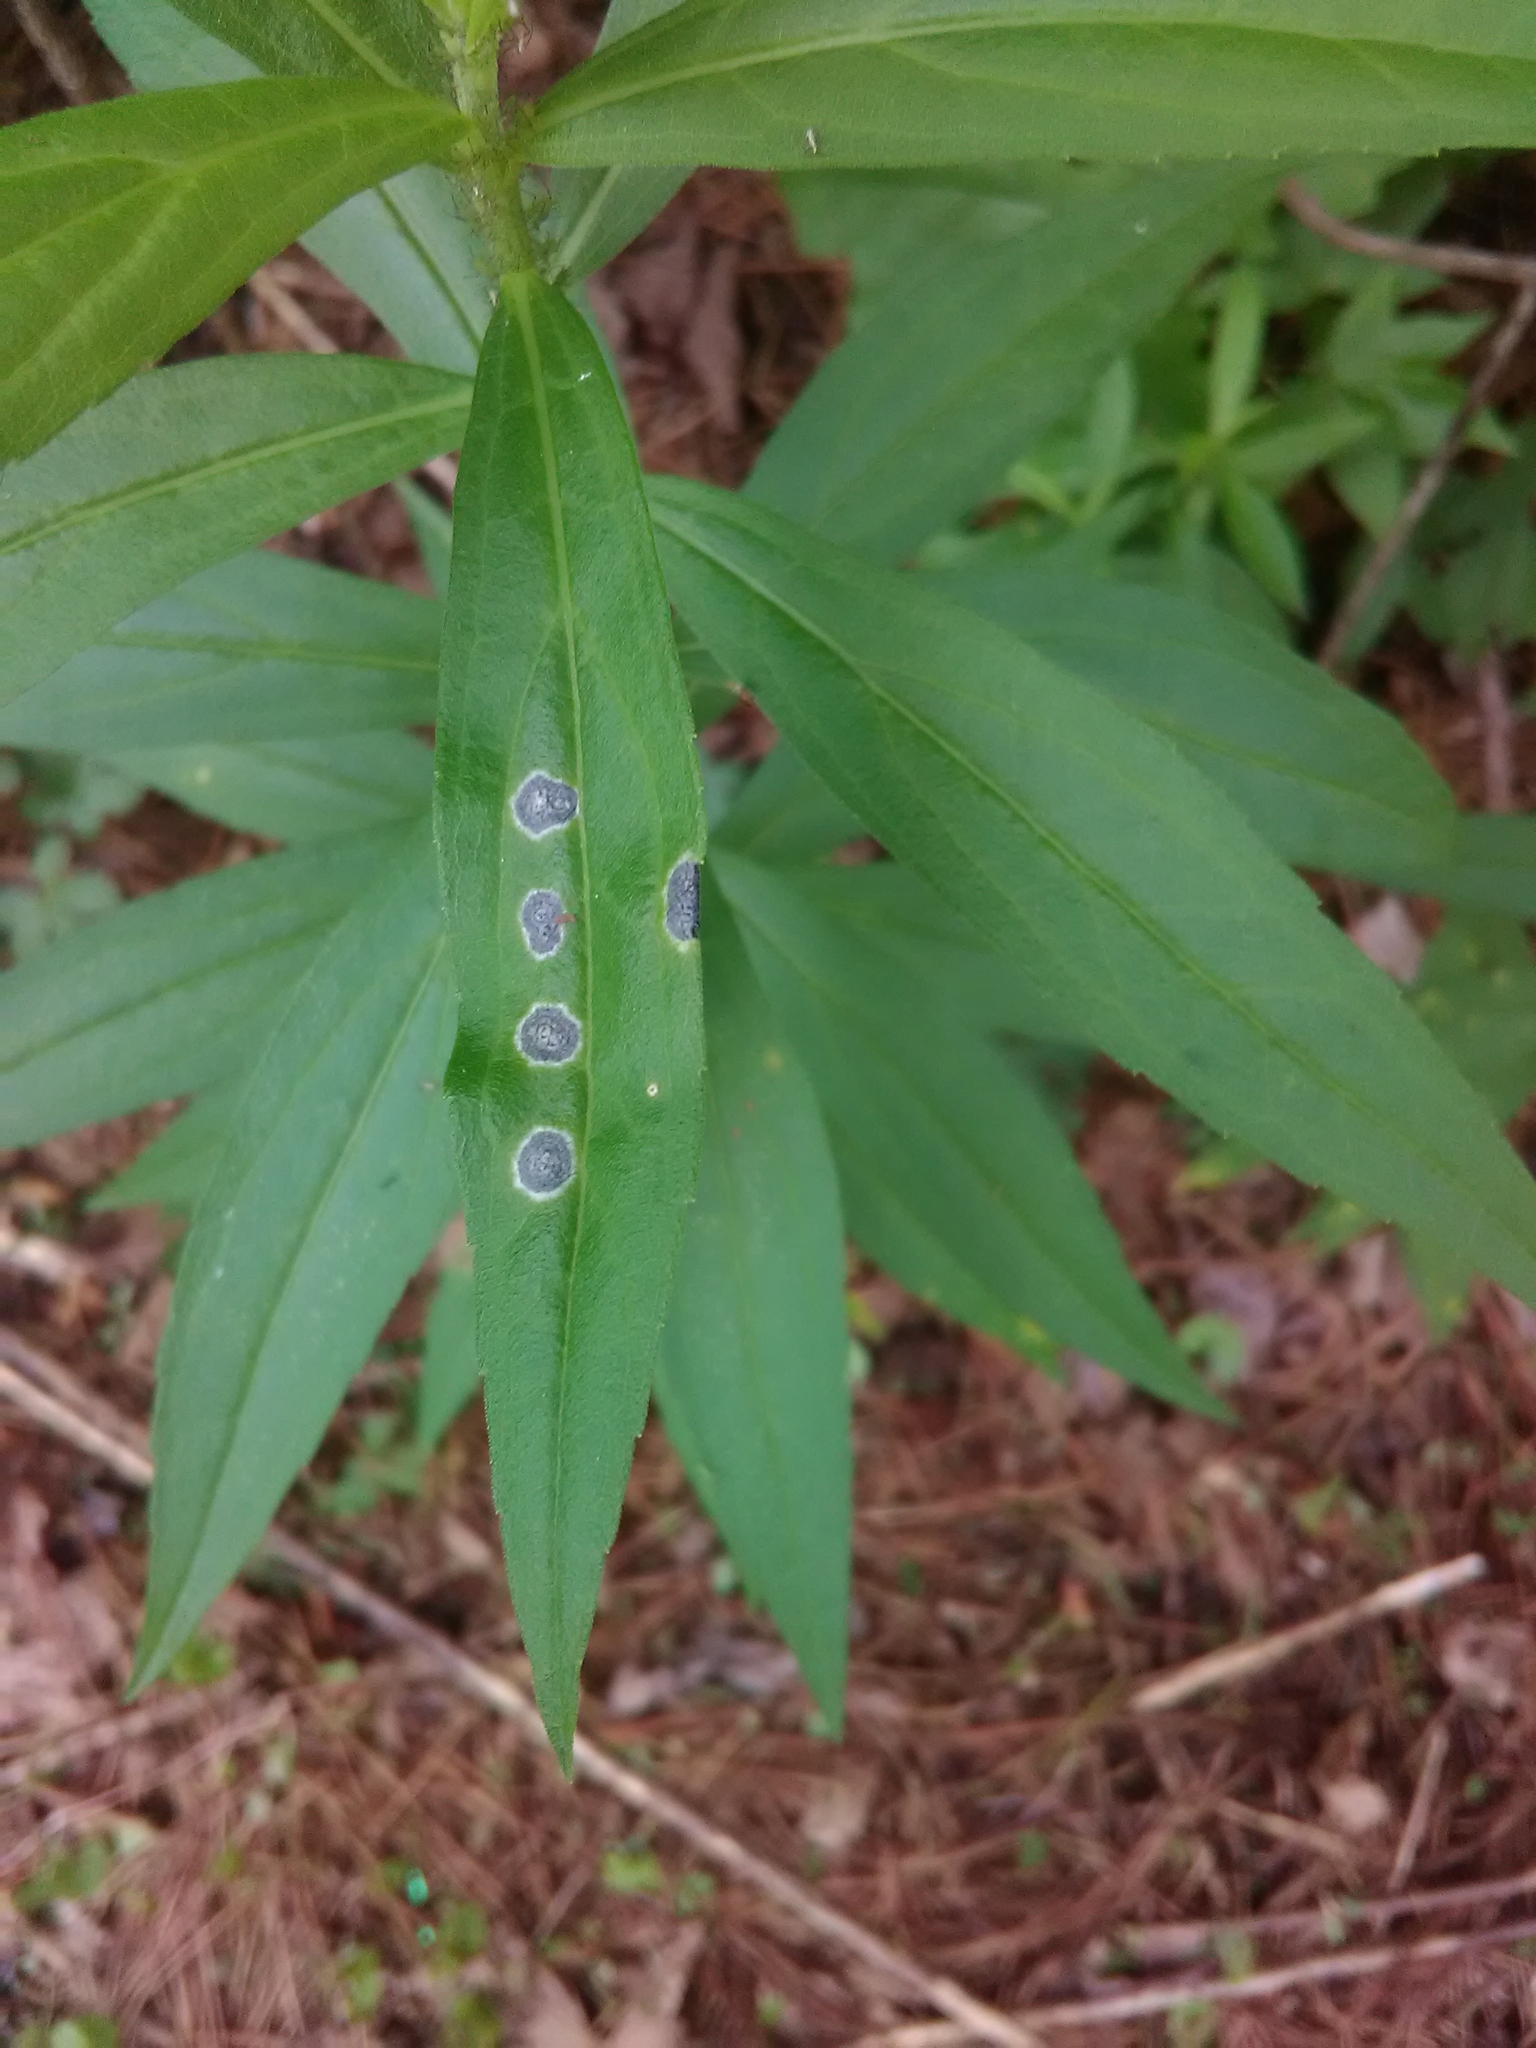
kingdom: Animalia
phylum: Arthropoda
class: Insecta
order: Diptera
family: Cecidomyiidae
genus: Asteromyia
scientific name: Asteromyia carbonifera
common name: Carbonifera goldenrod gall midge
